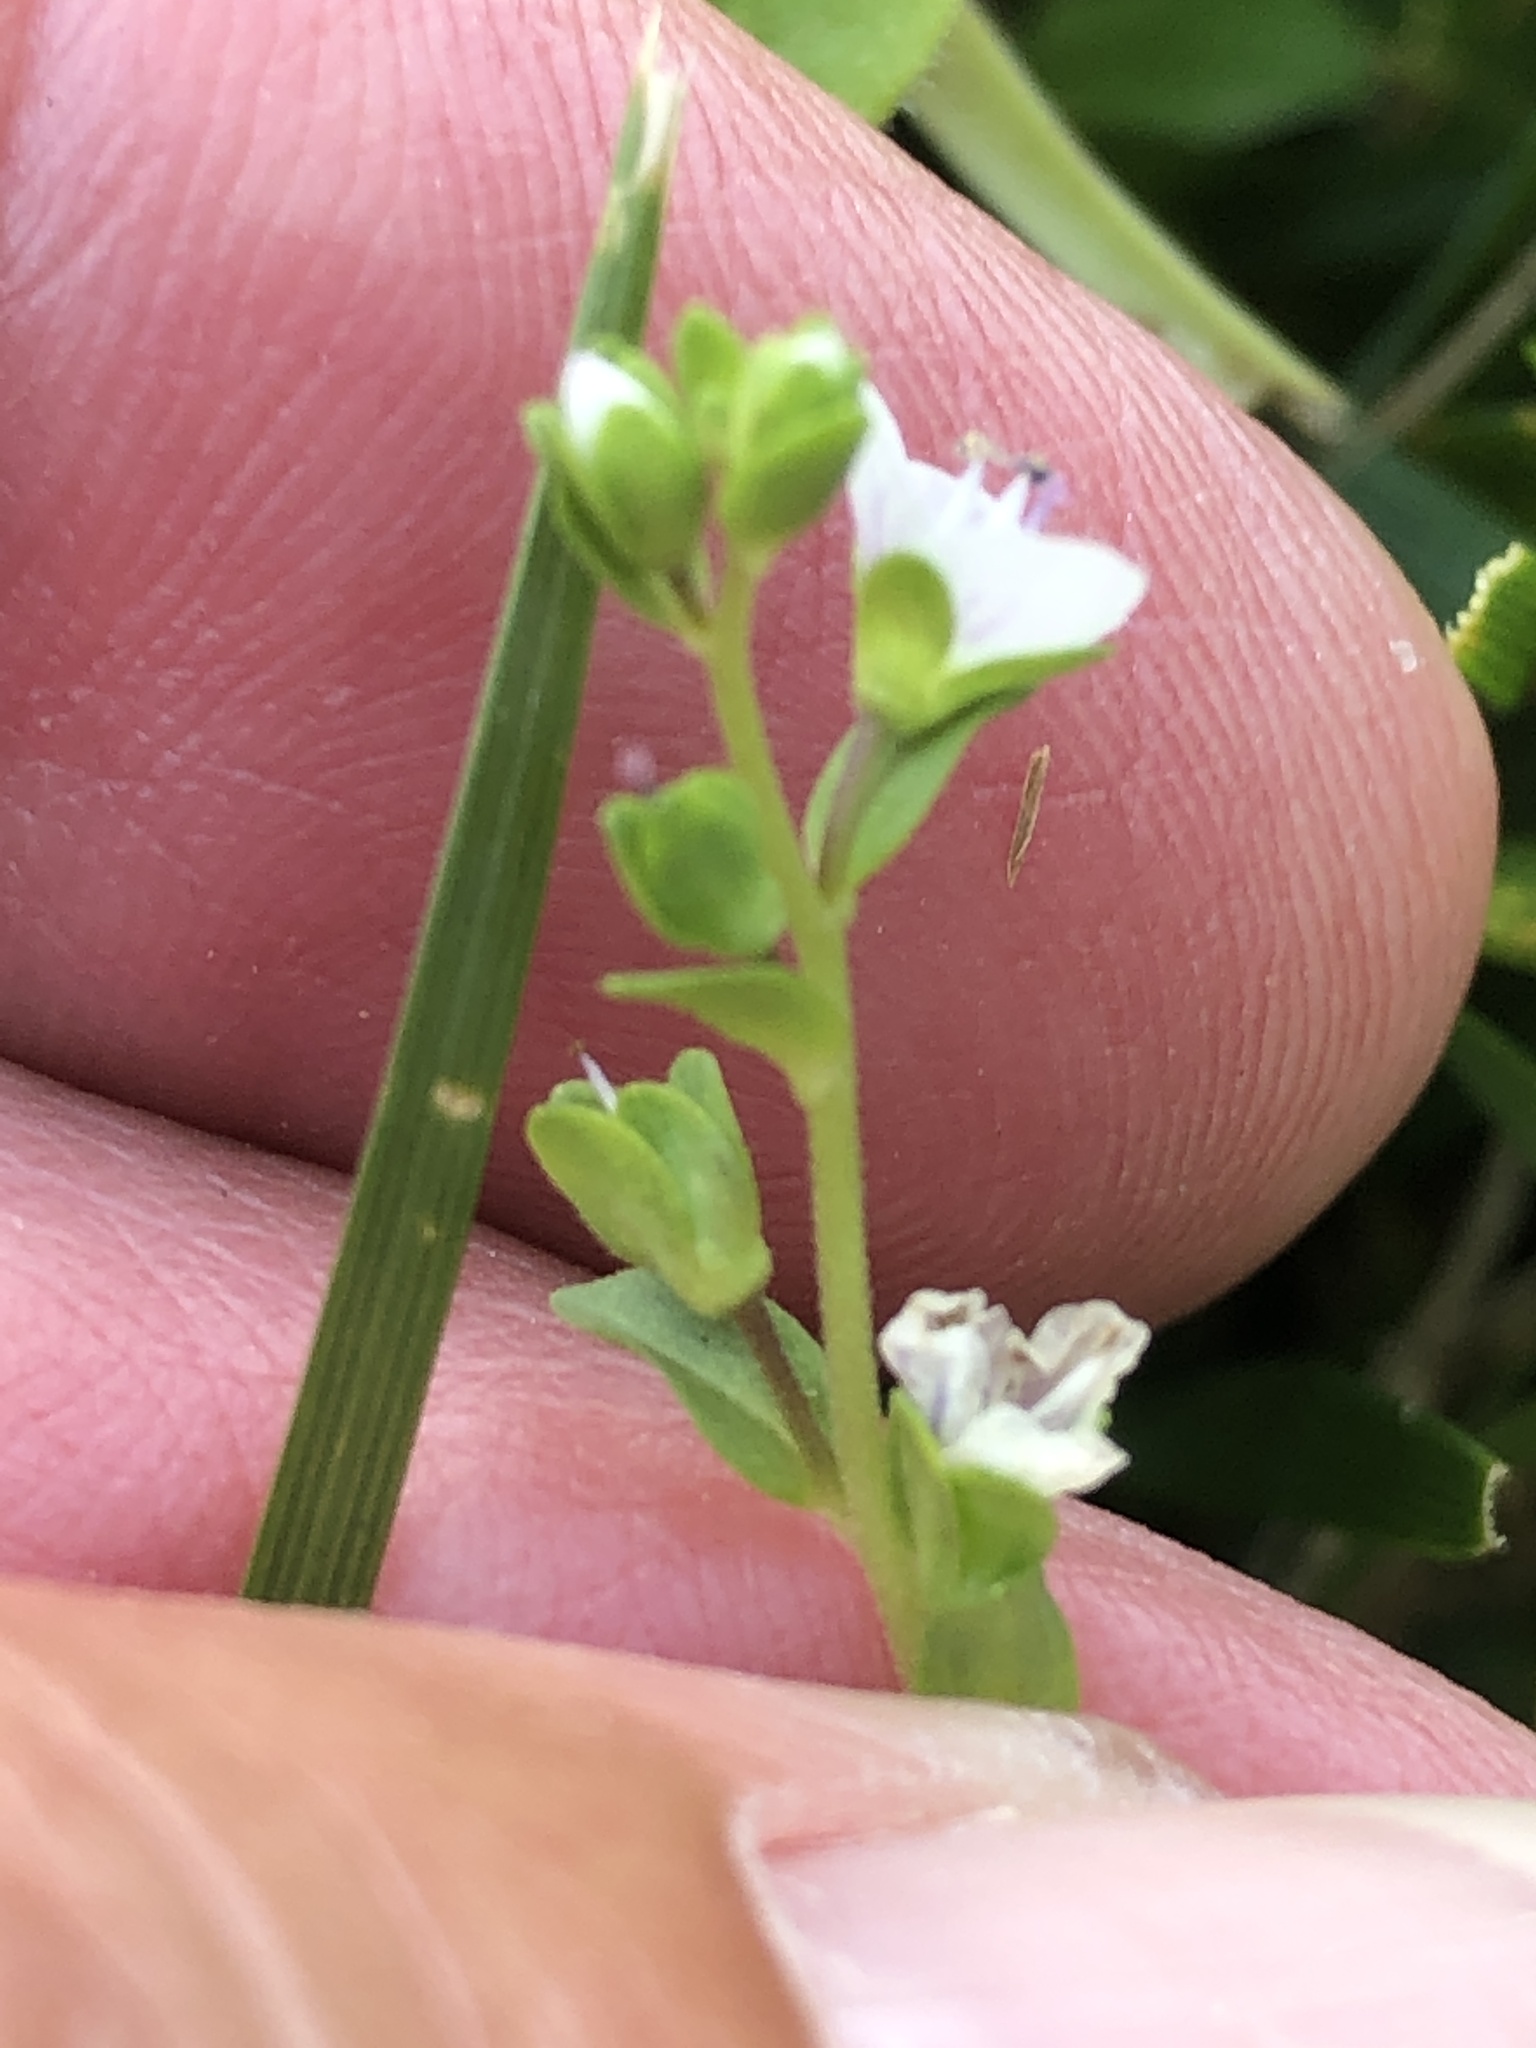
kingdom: Plantae
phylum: Tracheophyta
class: Magnoliopsida
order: Lamiales
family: Plantaginaceae
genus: Veronica
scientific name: Veronica serpyllifolia
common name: Thyme-leaved speedwell
